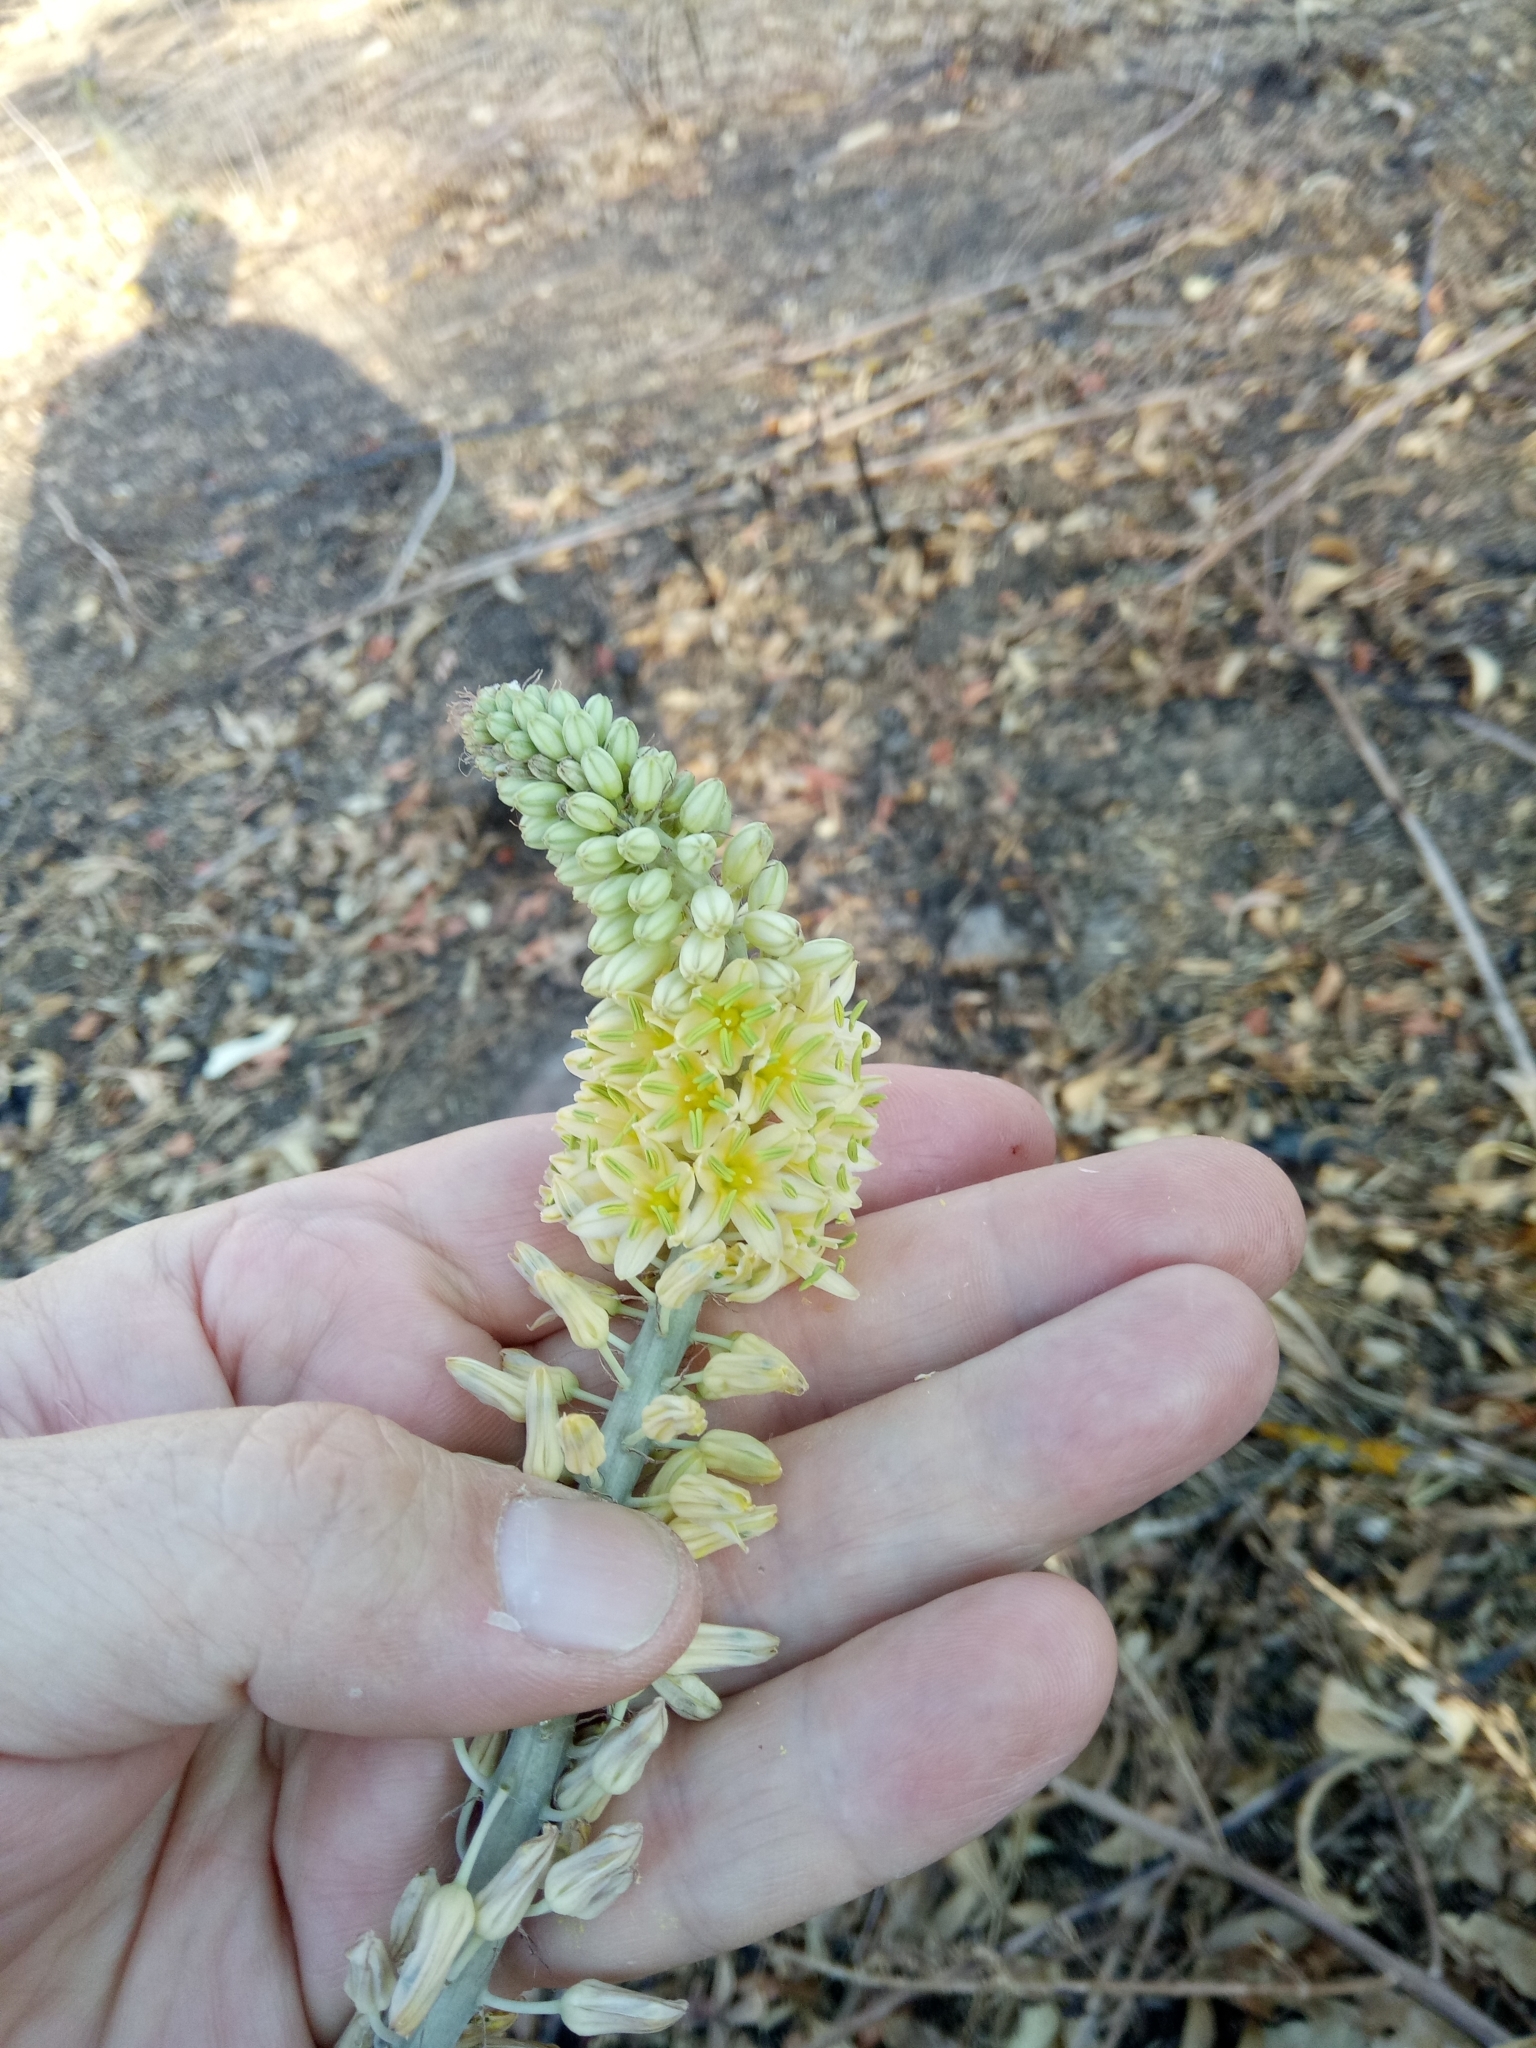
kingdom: Plantae
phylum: Tracheophyta
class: Liliopsida
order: Asparagales
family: Asparagaceae
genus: Drimia
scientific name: Drimia anthericoides
